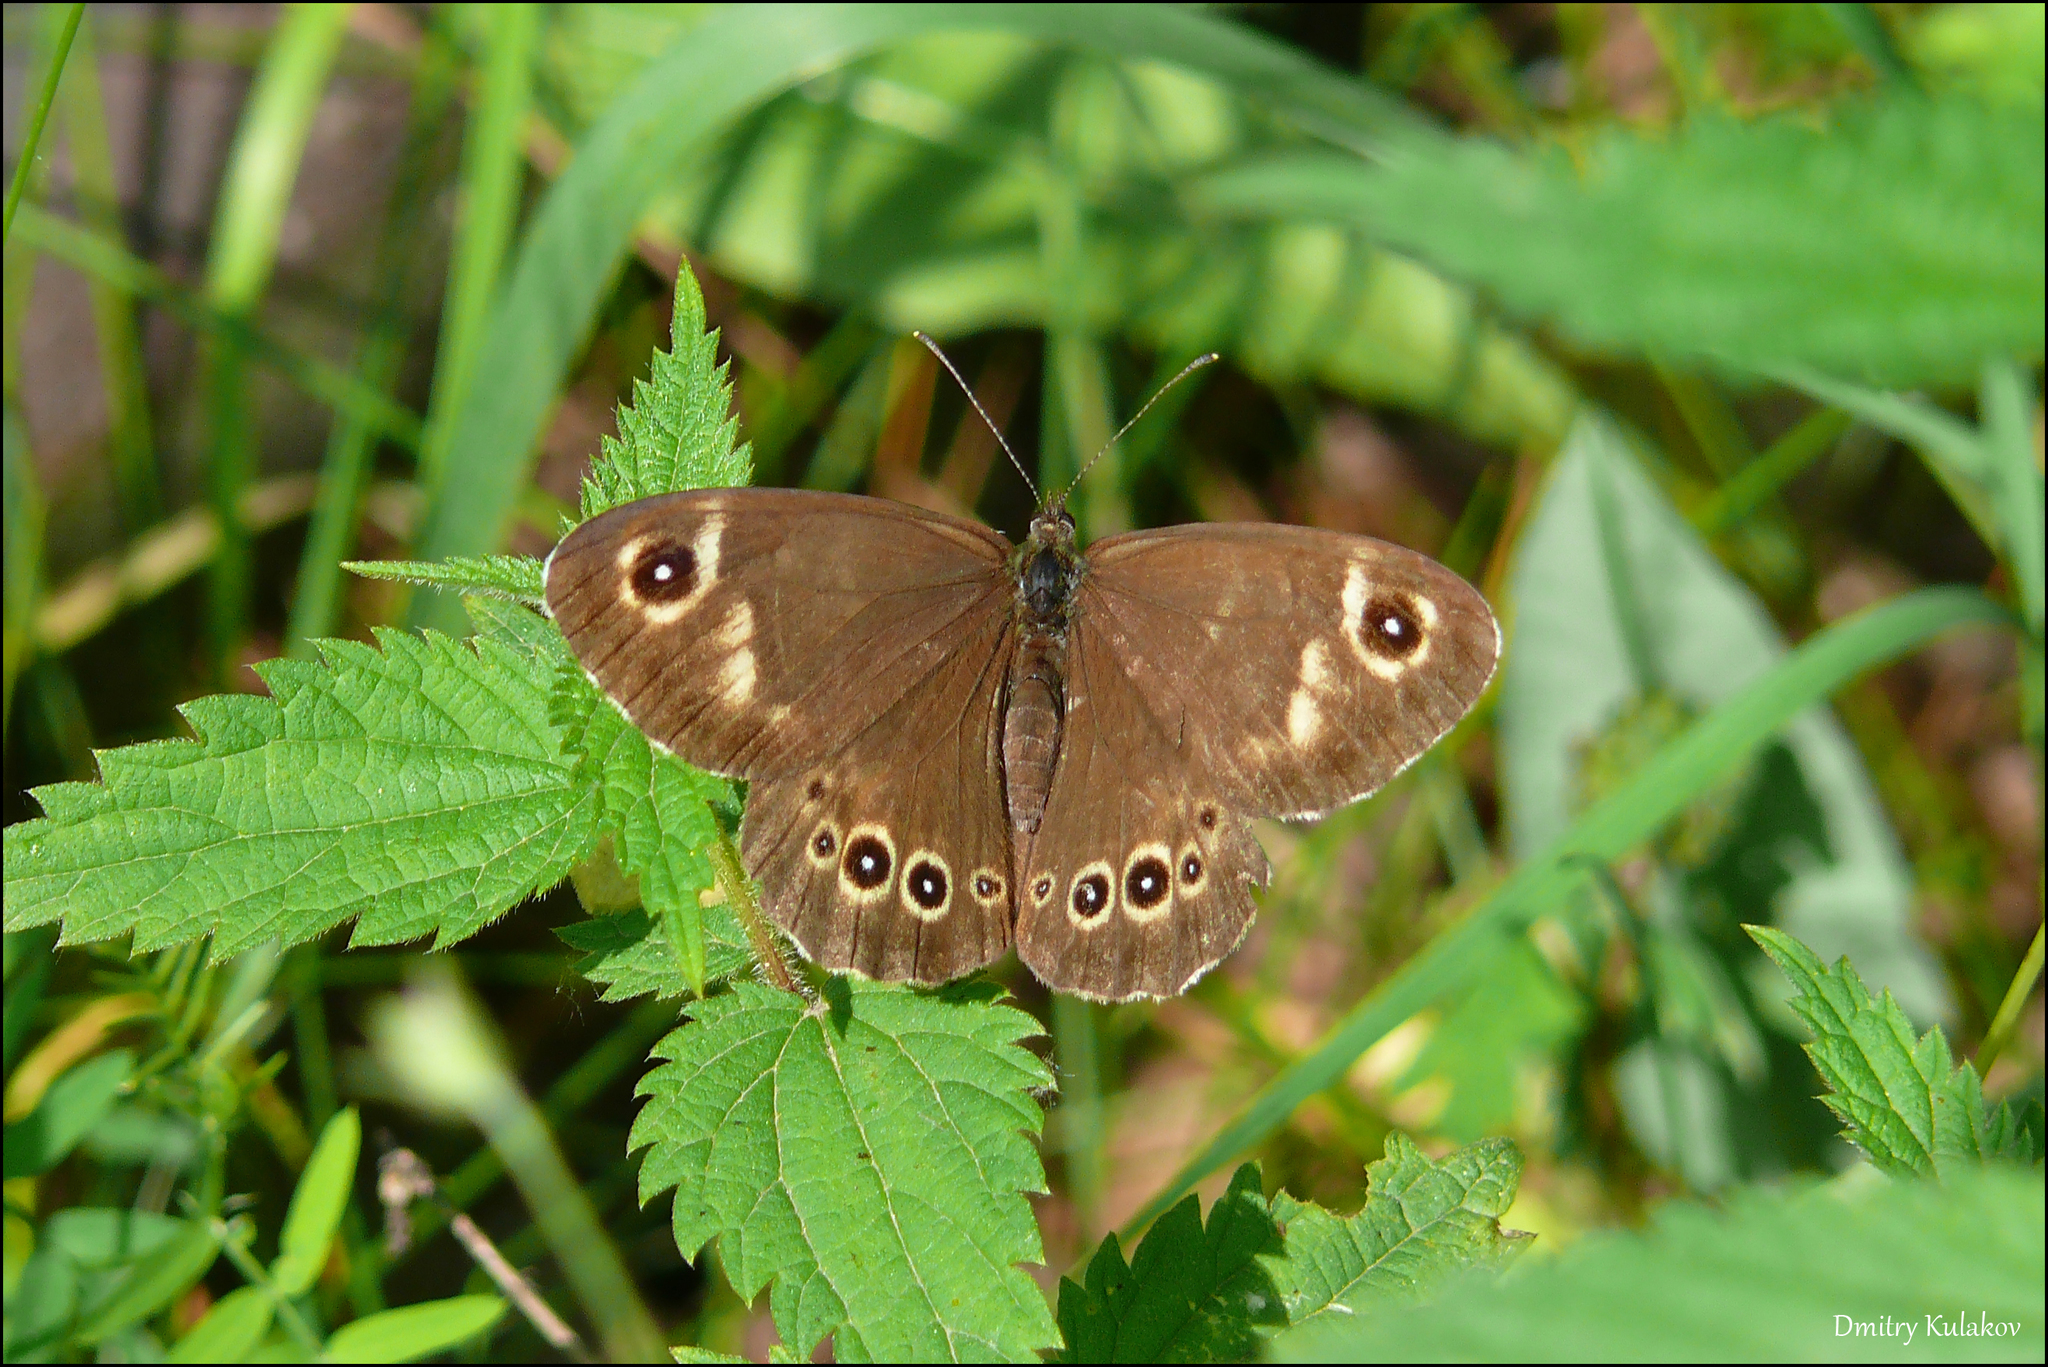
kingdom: Animalia
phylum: Arthropoda
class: Insecta
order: Lepidoptera
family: Nymphalidae
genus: Pararge
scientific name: Pararge Lasiommata deidamia
